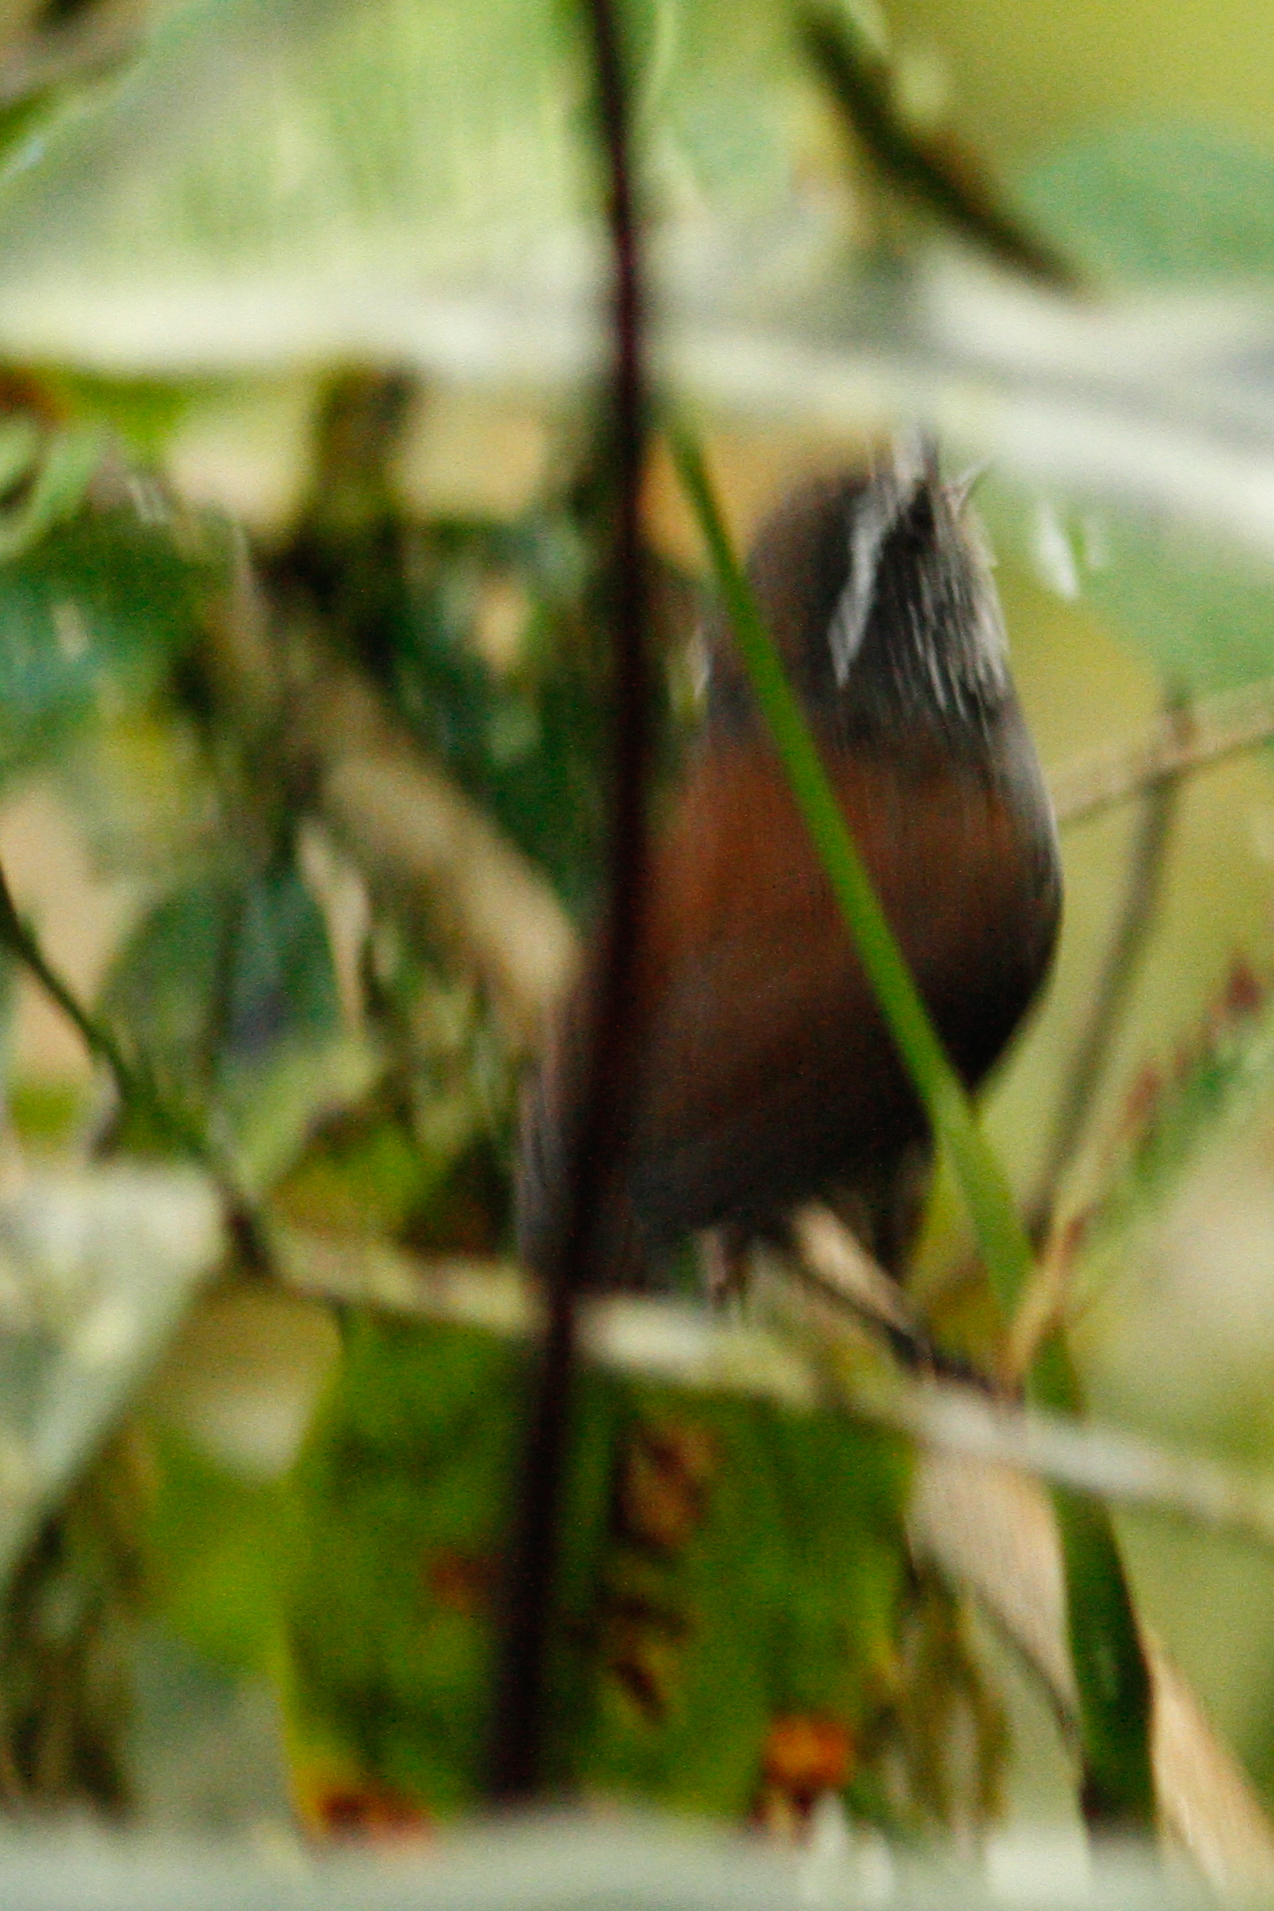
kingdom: Animalia
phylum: Chordata
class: Aves
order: Passeriformes
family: Troglodytidae
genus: Henicorhina
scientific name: Henicorhina leucophrys
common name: Gray-breasted wood-wren
